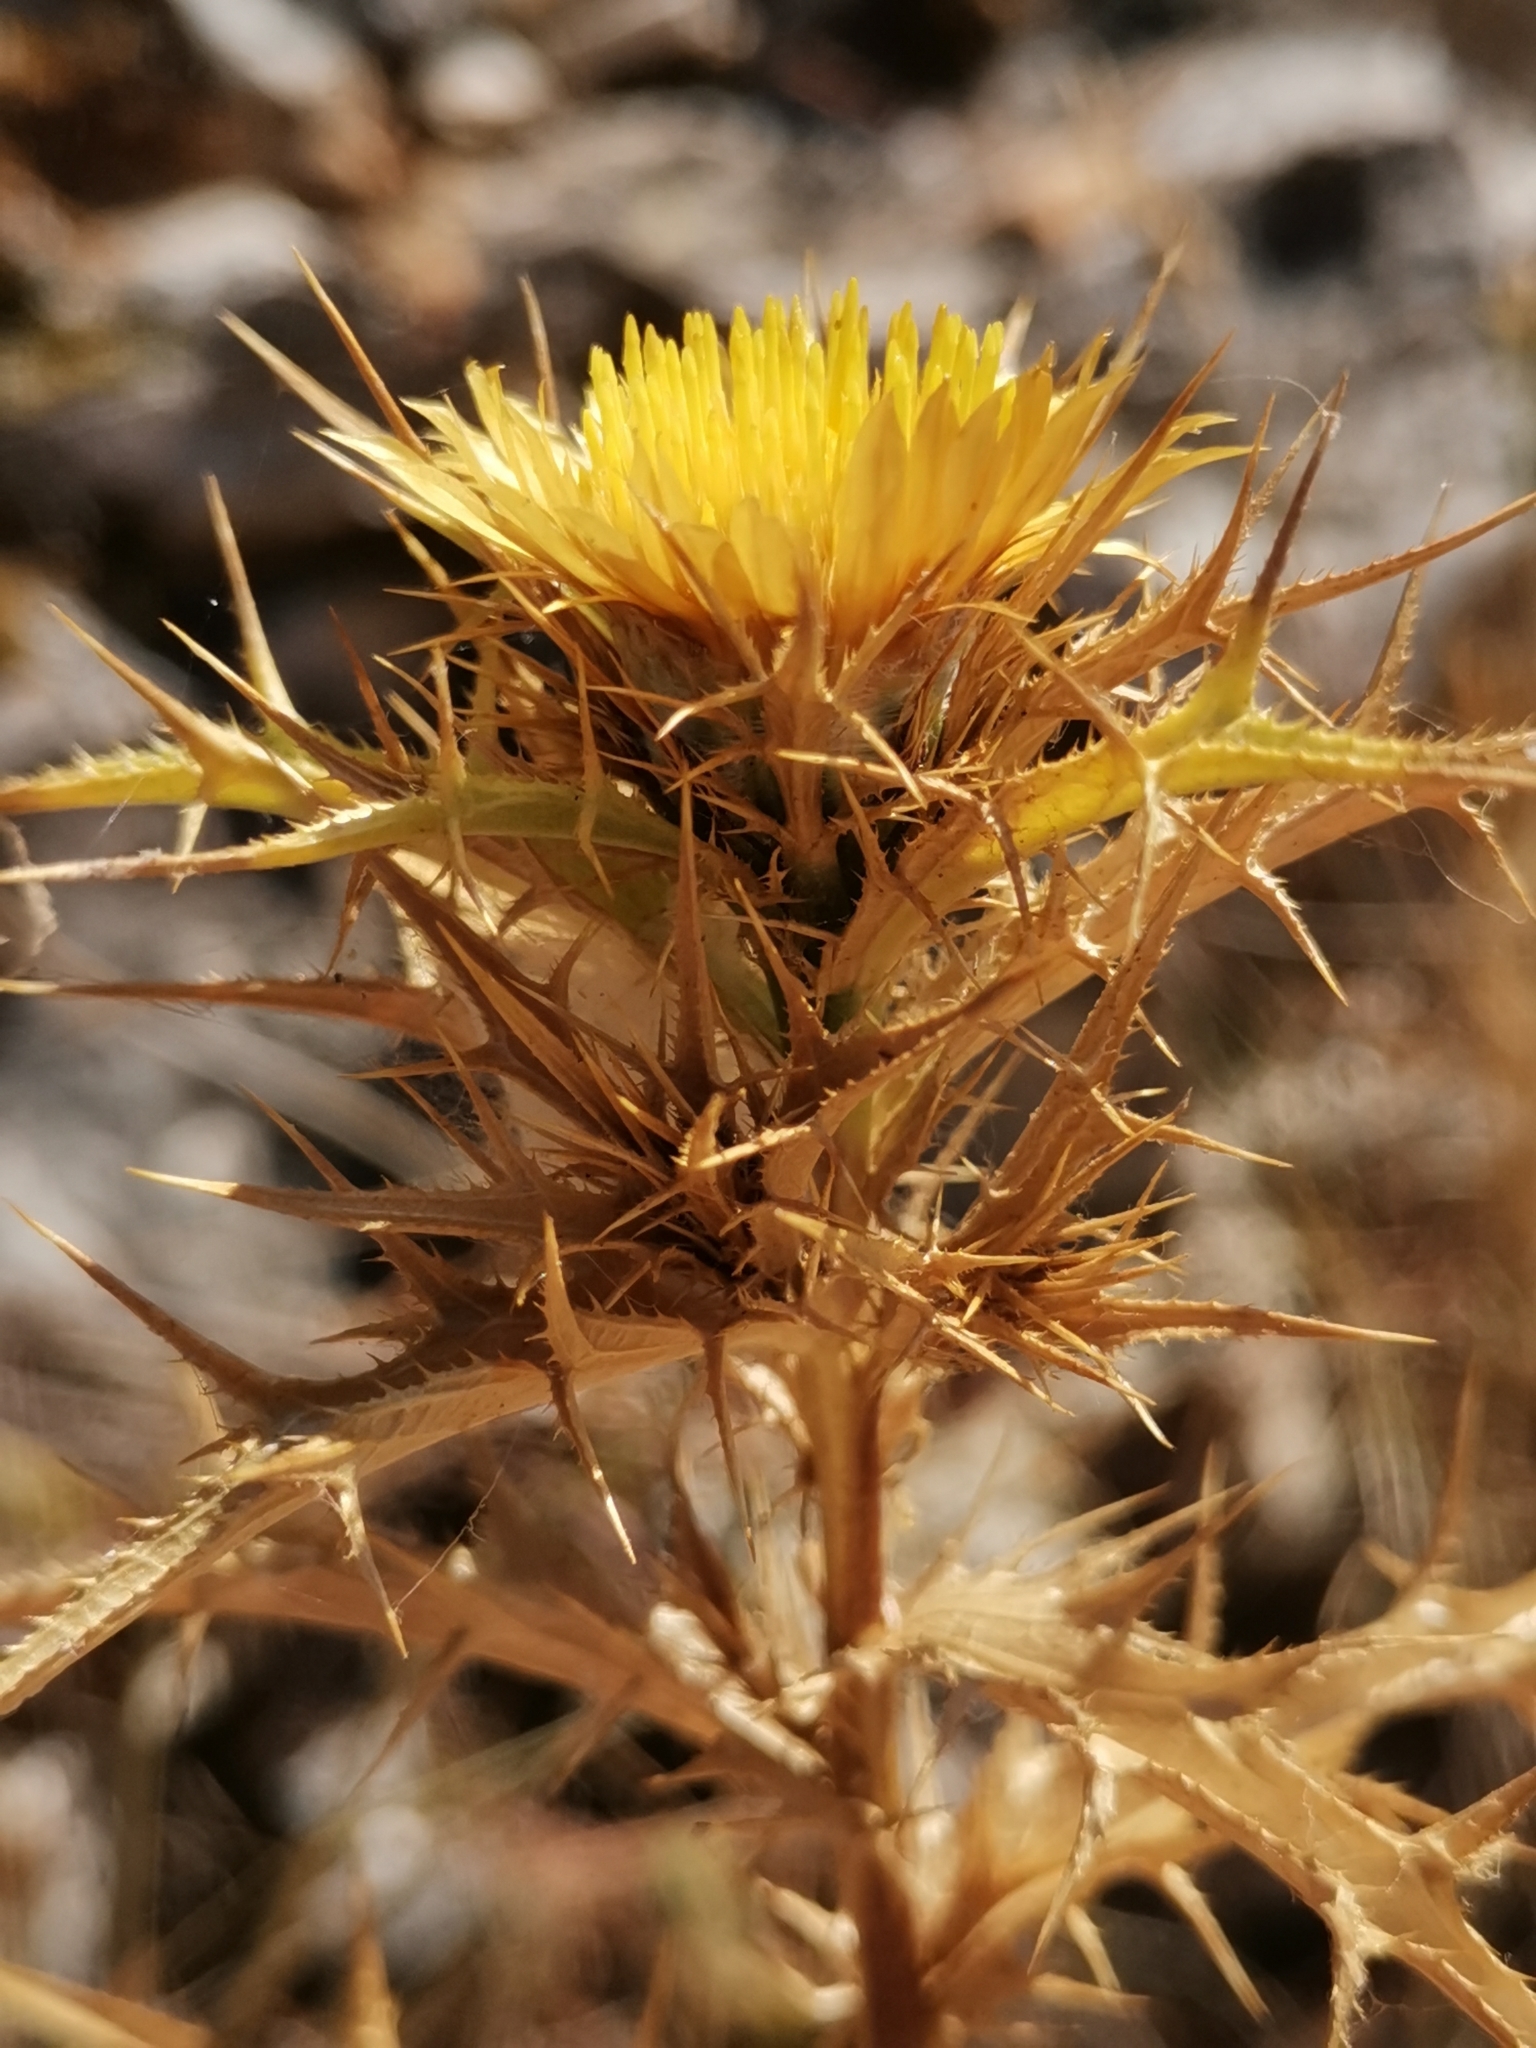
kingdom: Plantae
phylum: Tracheophyta
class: Magnoliopsida
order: Asterales
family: Asteraceae
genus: Carlina
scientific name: Carlina corymbosa
